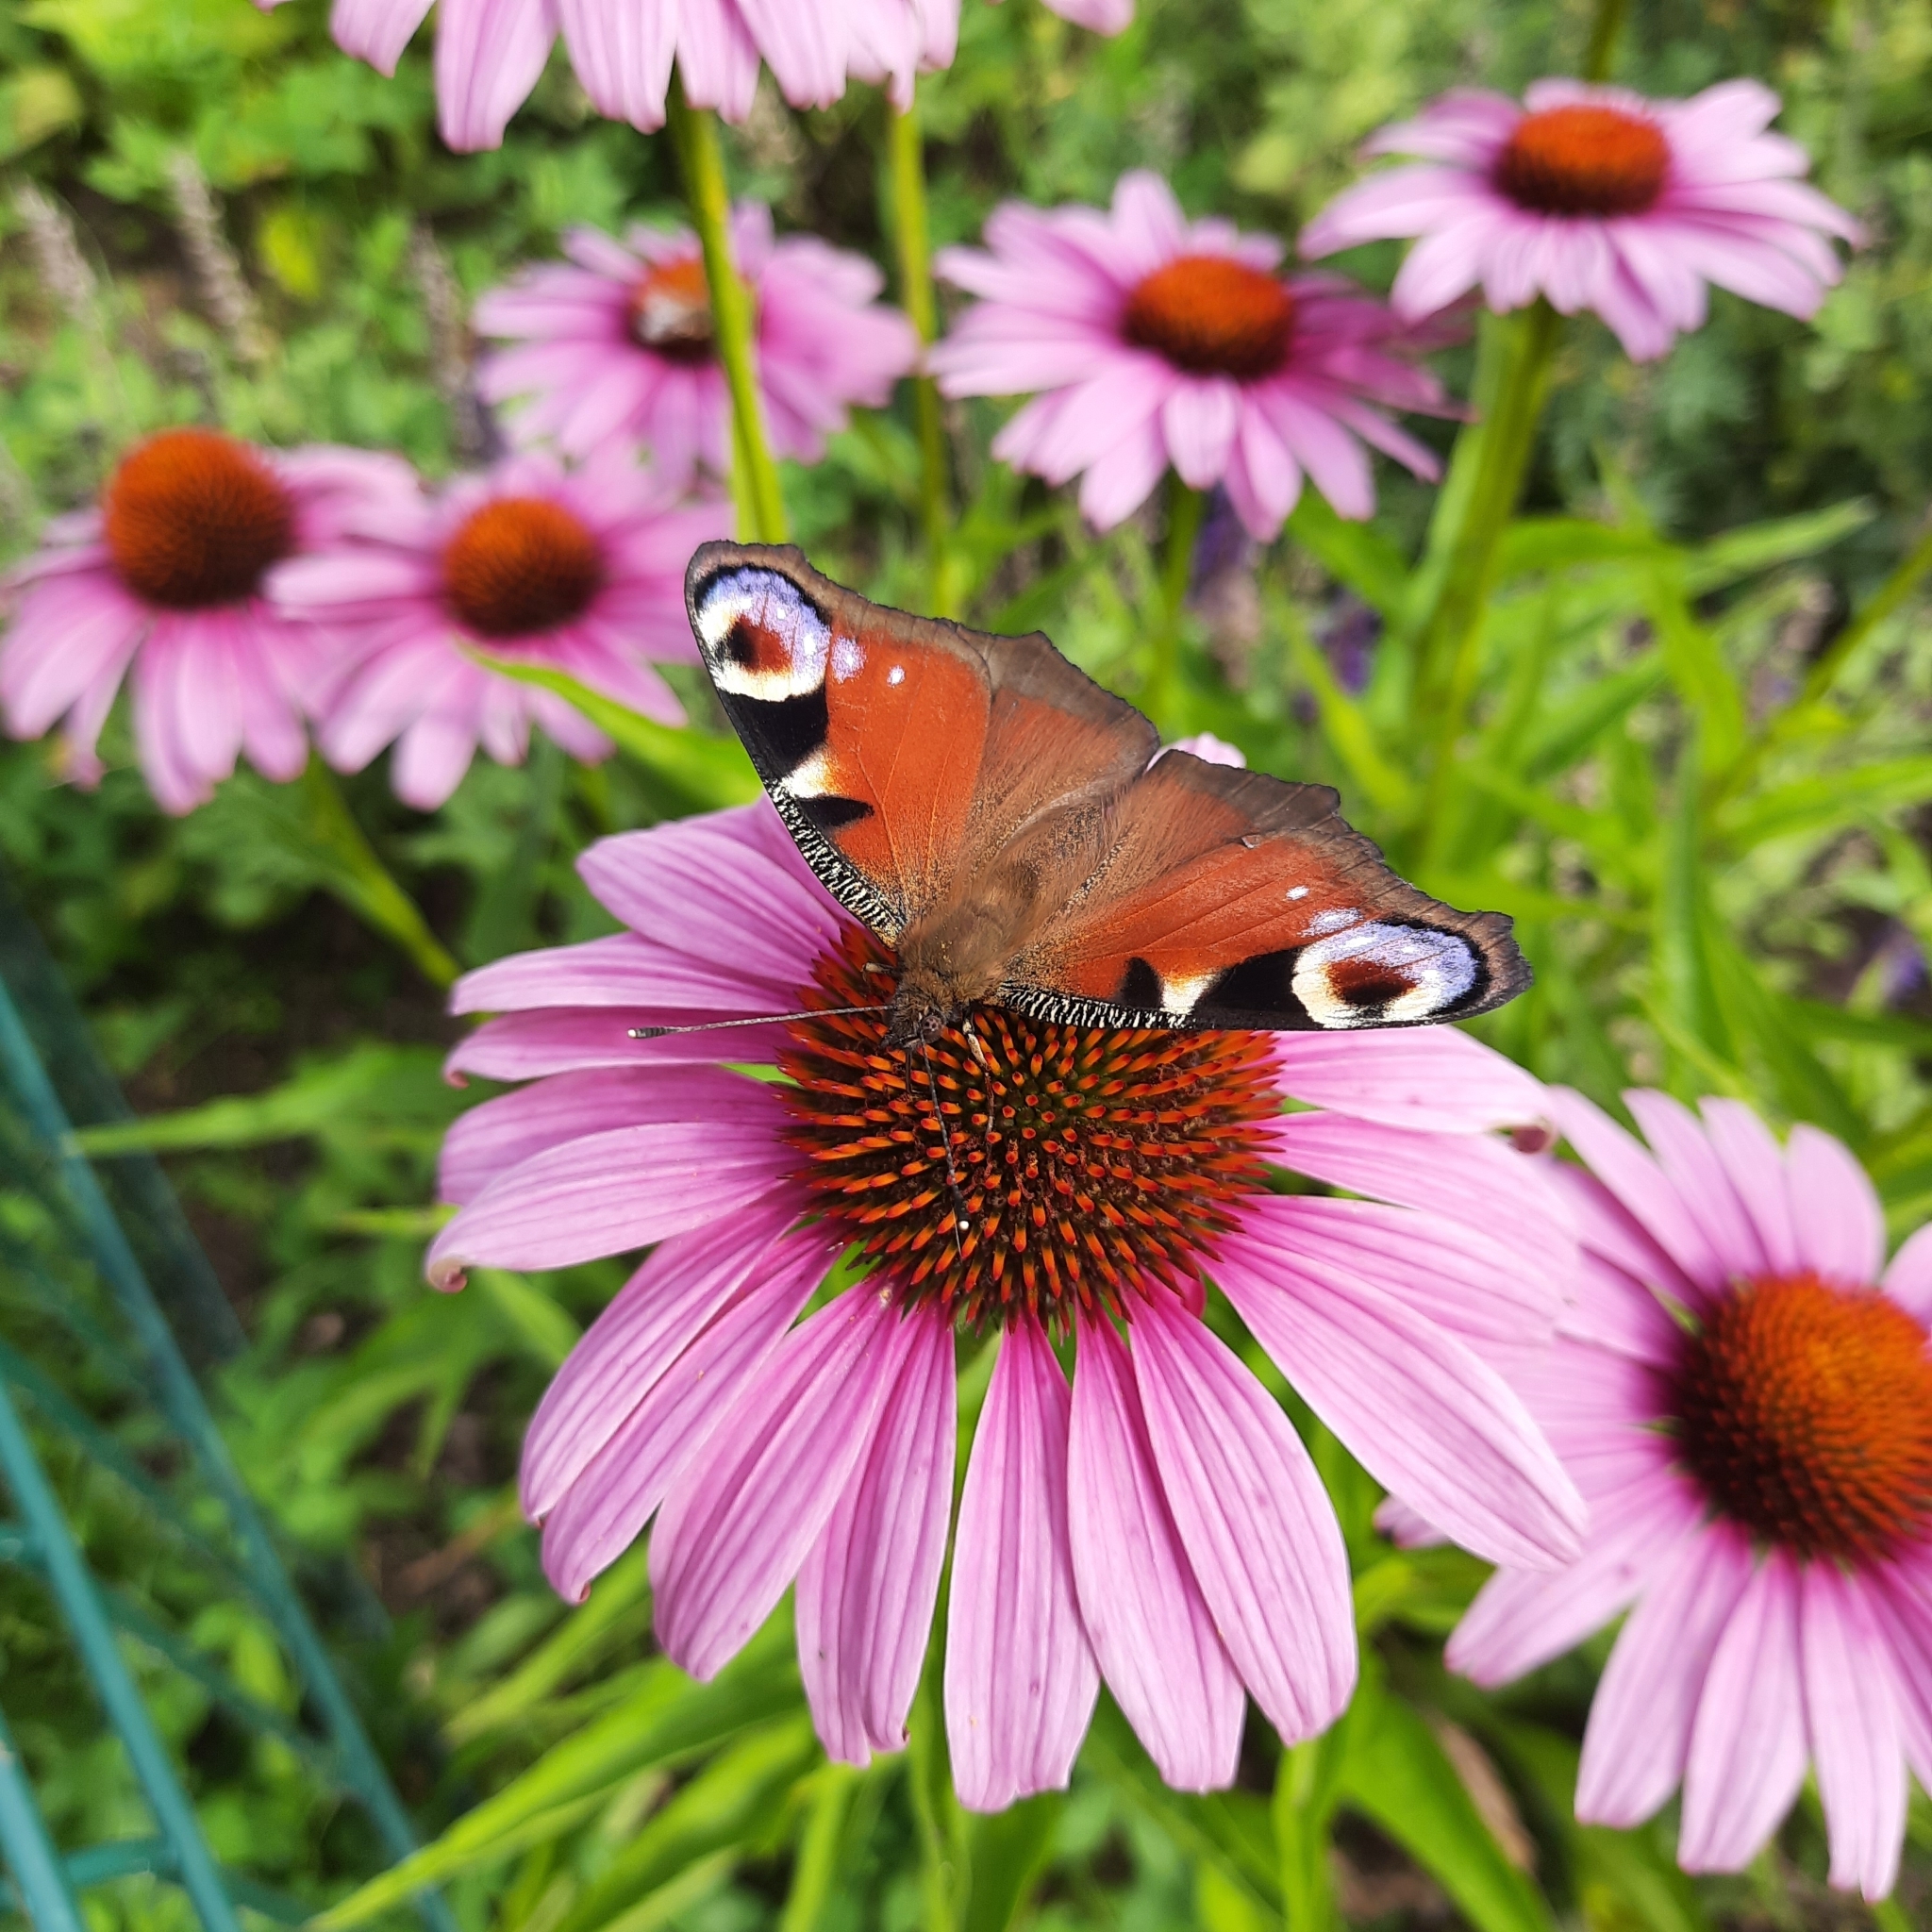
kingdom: Animalia
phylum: Arthropoda
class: Insecta
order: Lepidoptera
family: Nymphalidae
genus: Aglais
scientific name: Aglais io
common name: Peacock
